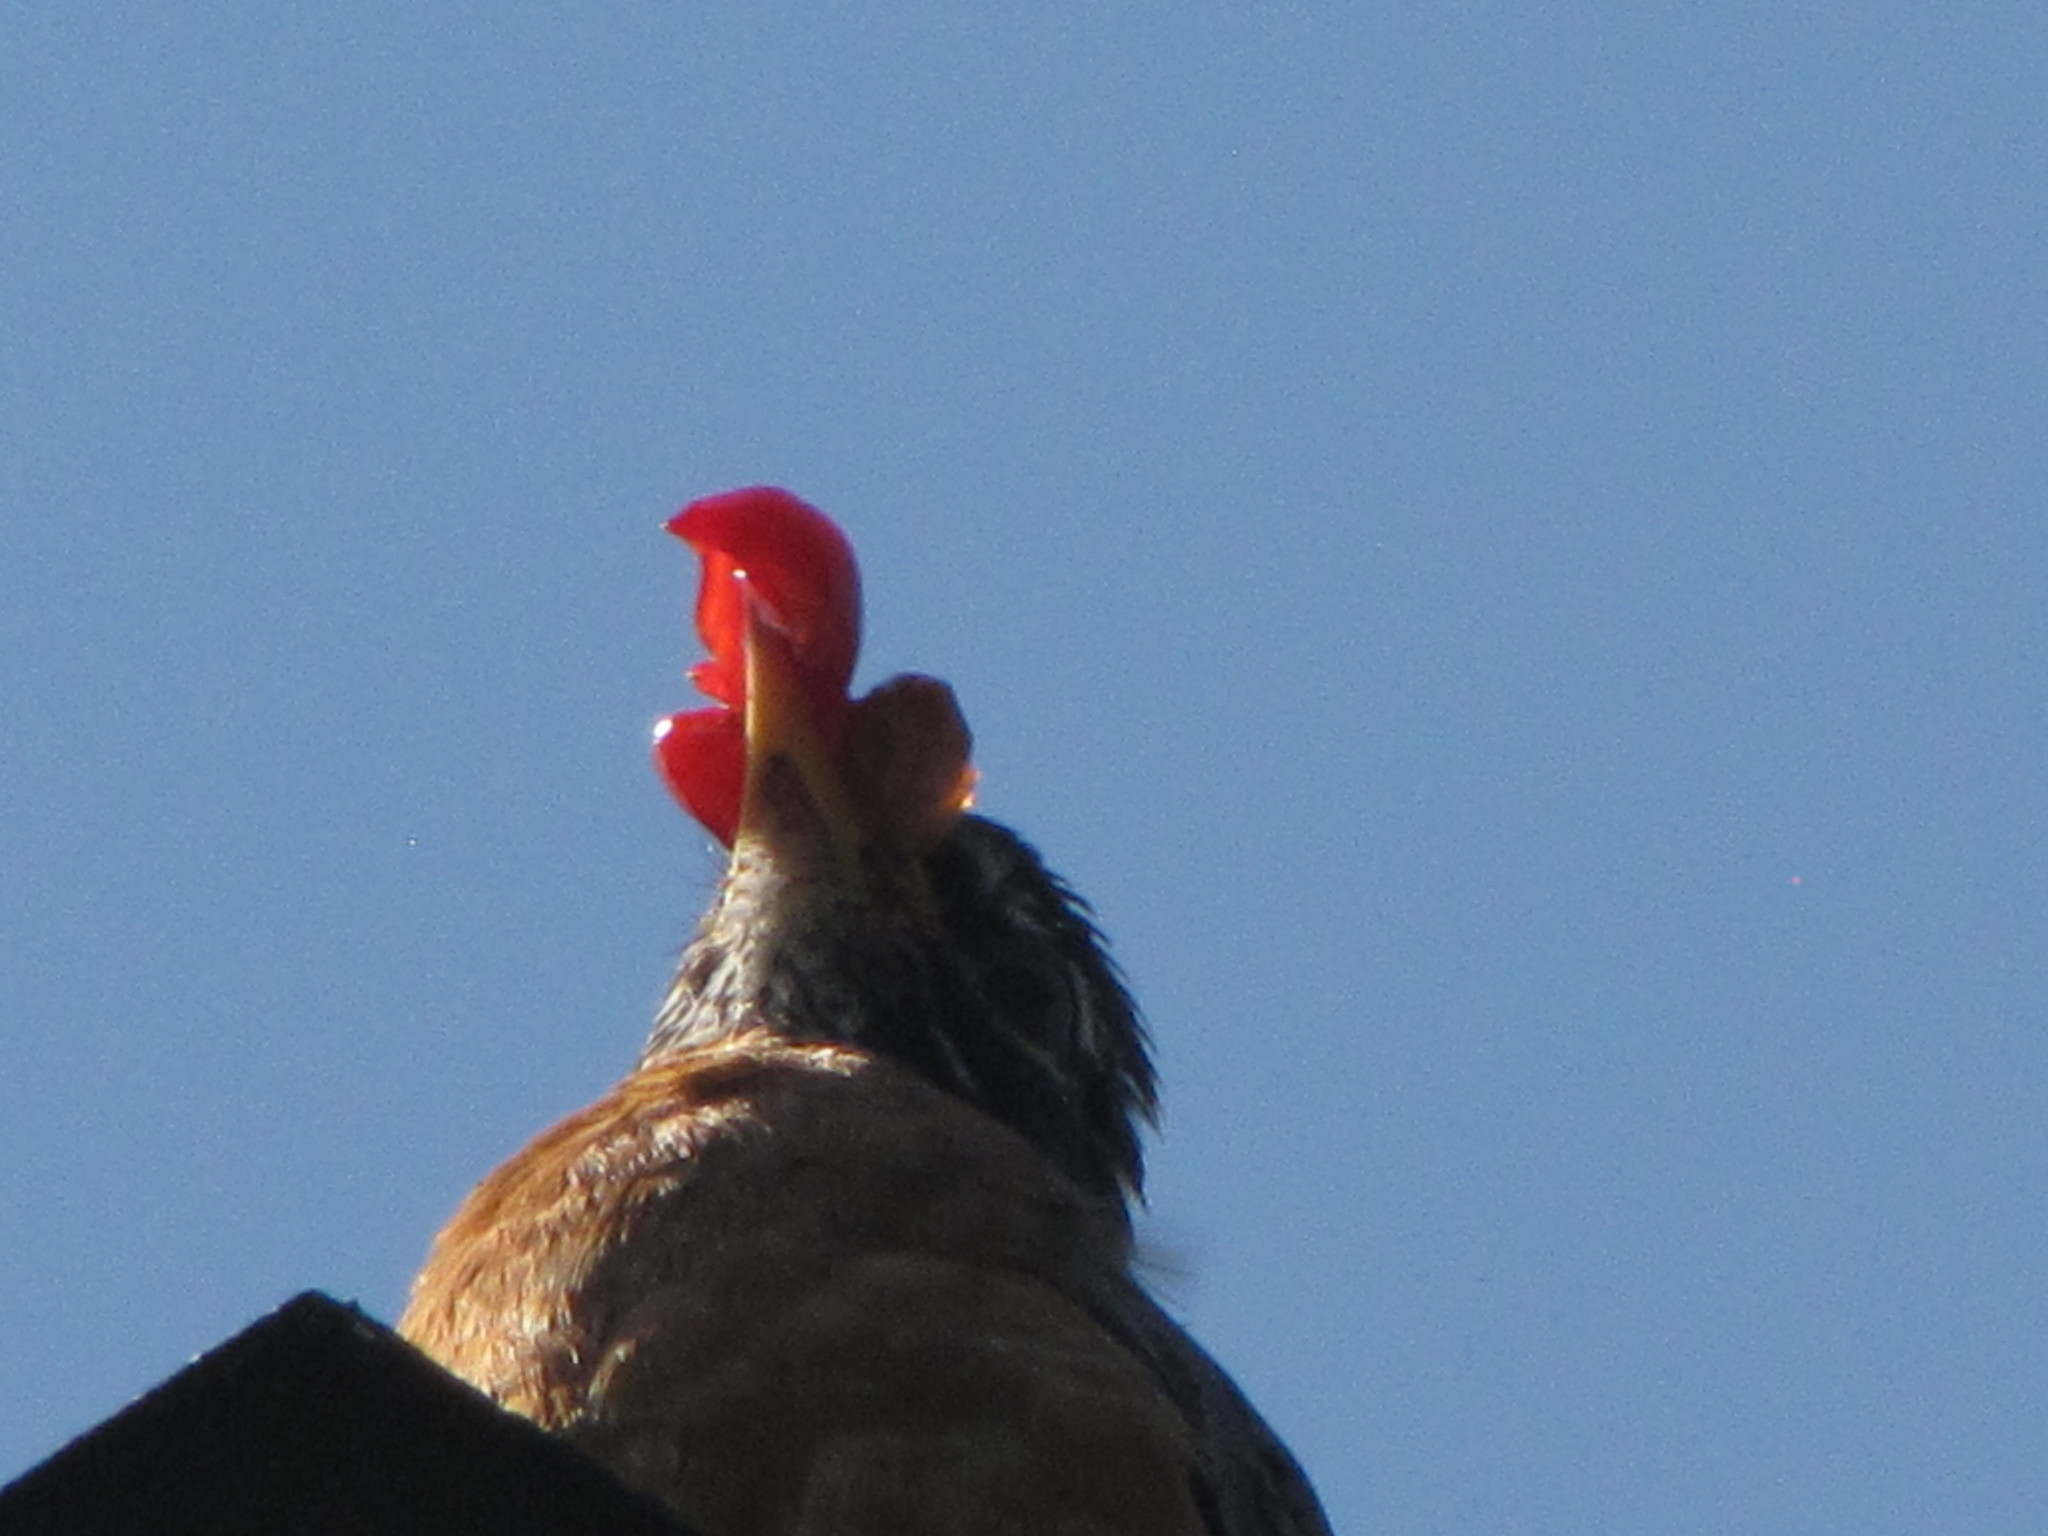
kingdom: Animalia
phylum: Chordata
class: Aves
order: Passeriformes
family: Turdidae
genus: Turdus
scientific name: Turdus migratorius
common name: American robin
